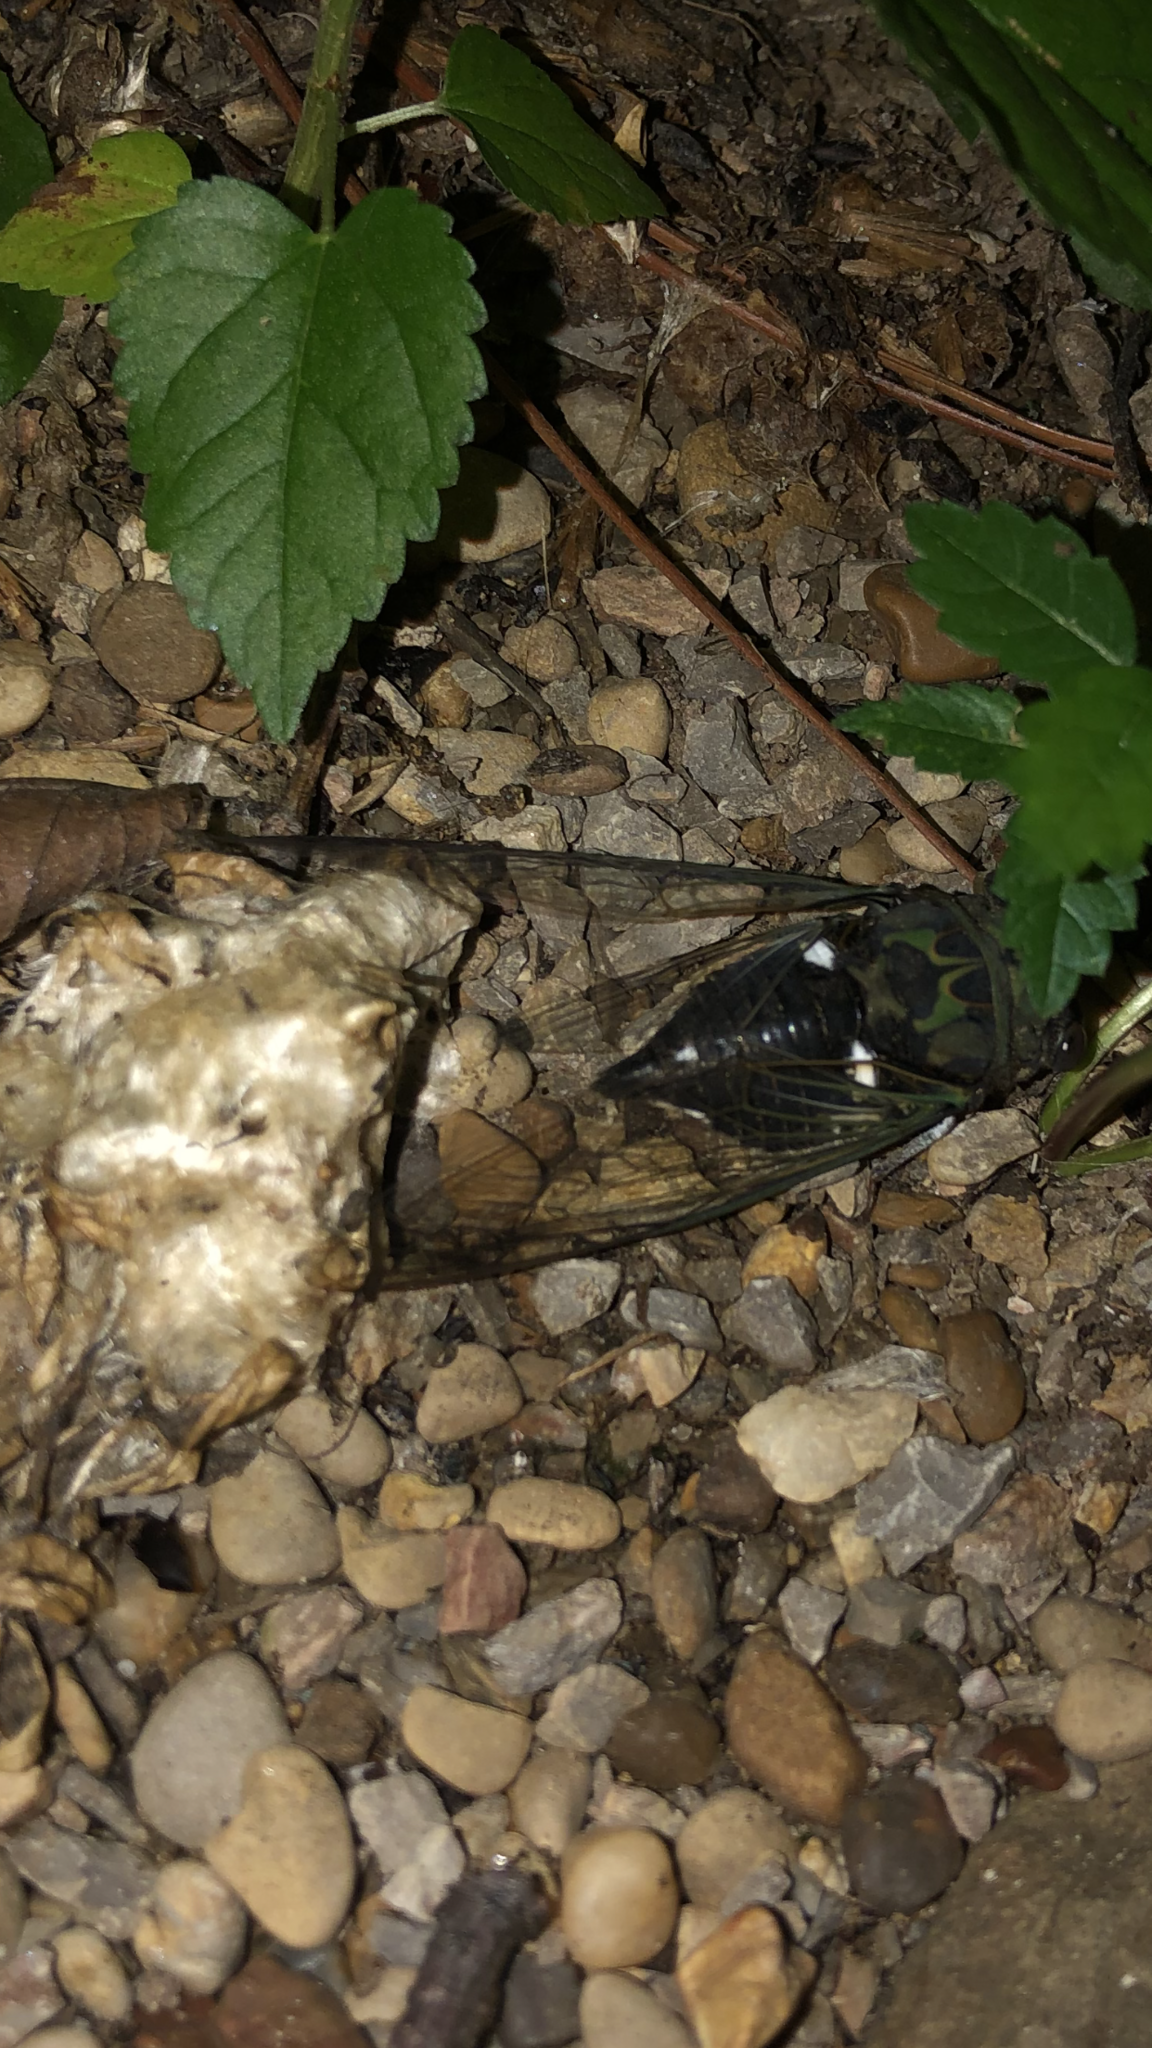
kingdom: Animalia
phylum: Arthropoda
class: Insecta
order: Hemiptera
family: Cicadidae
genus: Neotibicen
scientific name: Neotibicen pruinosus
